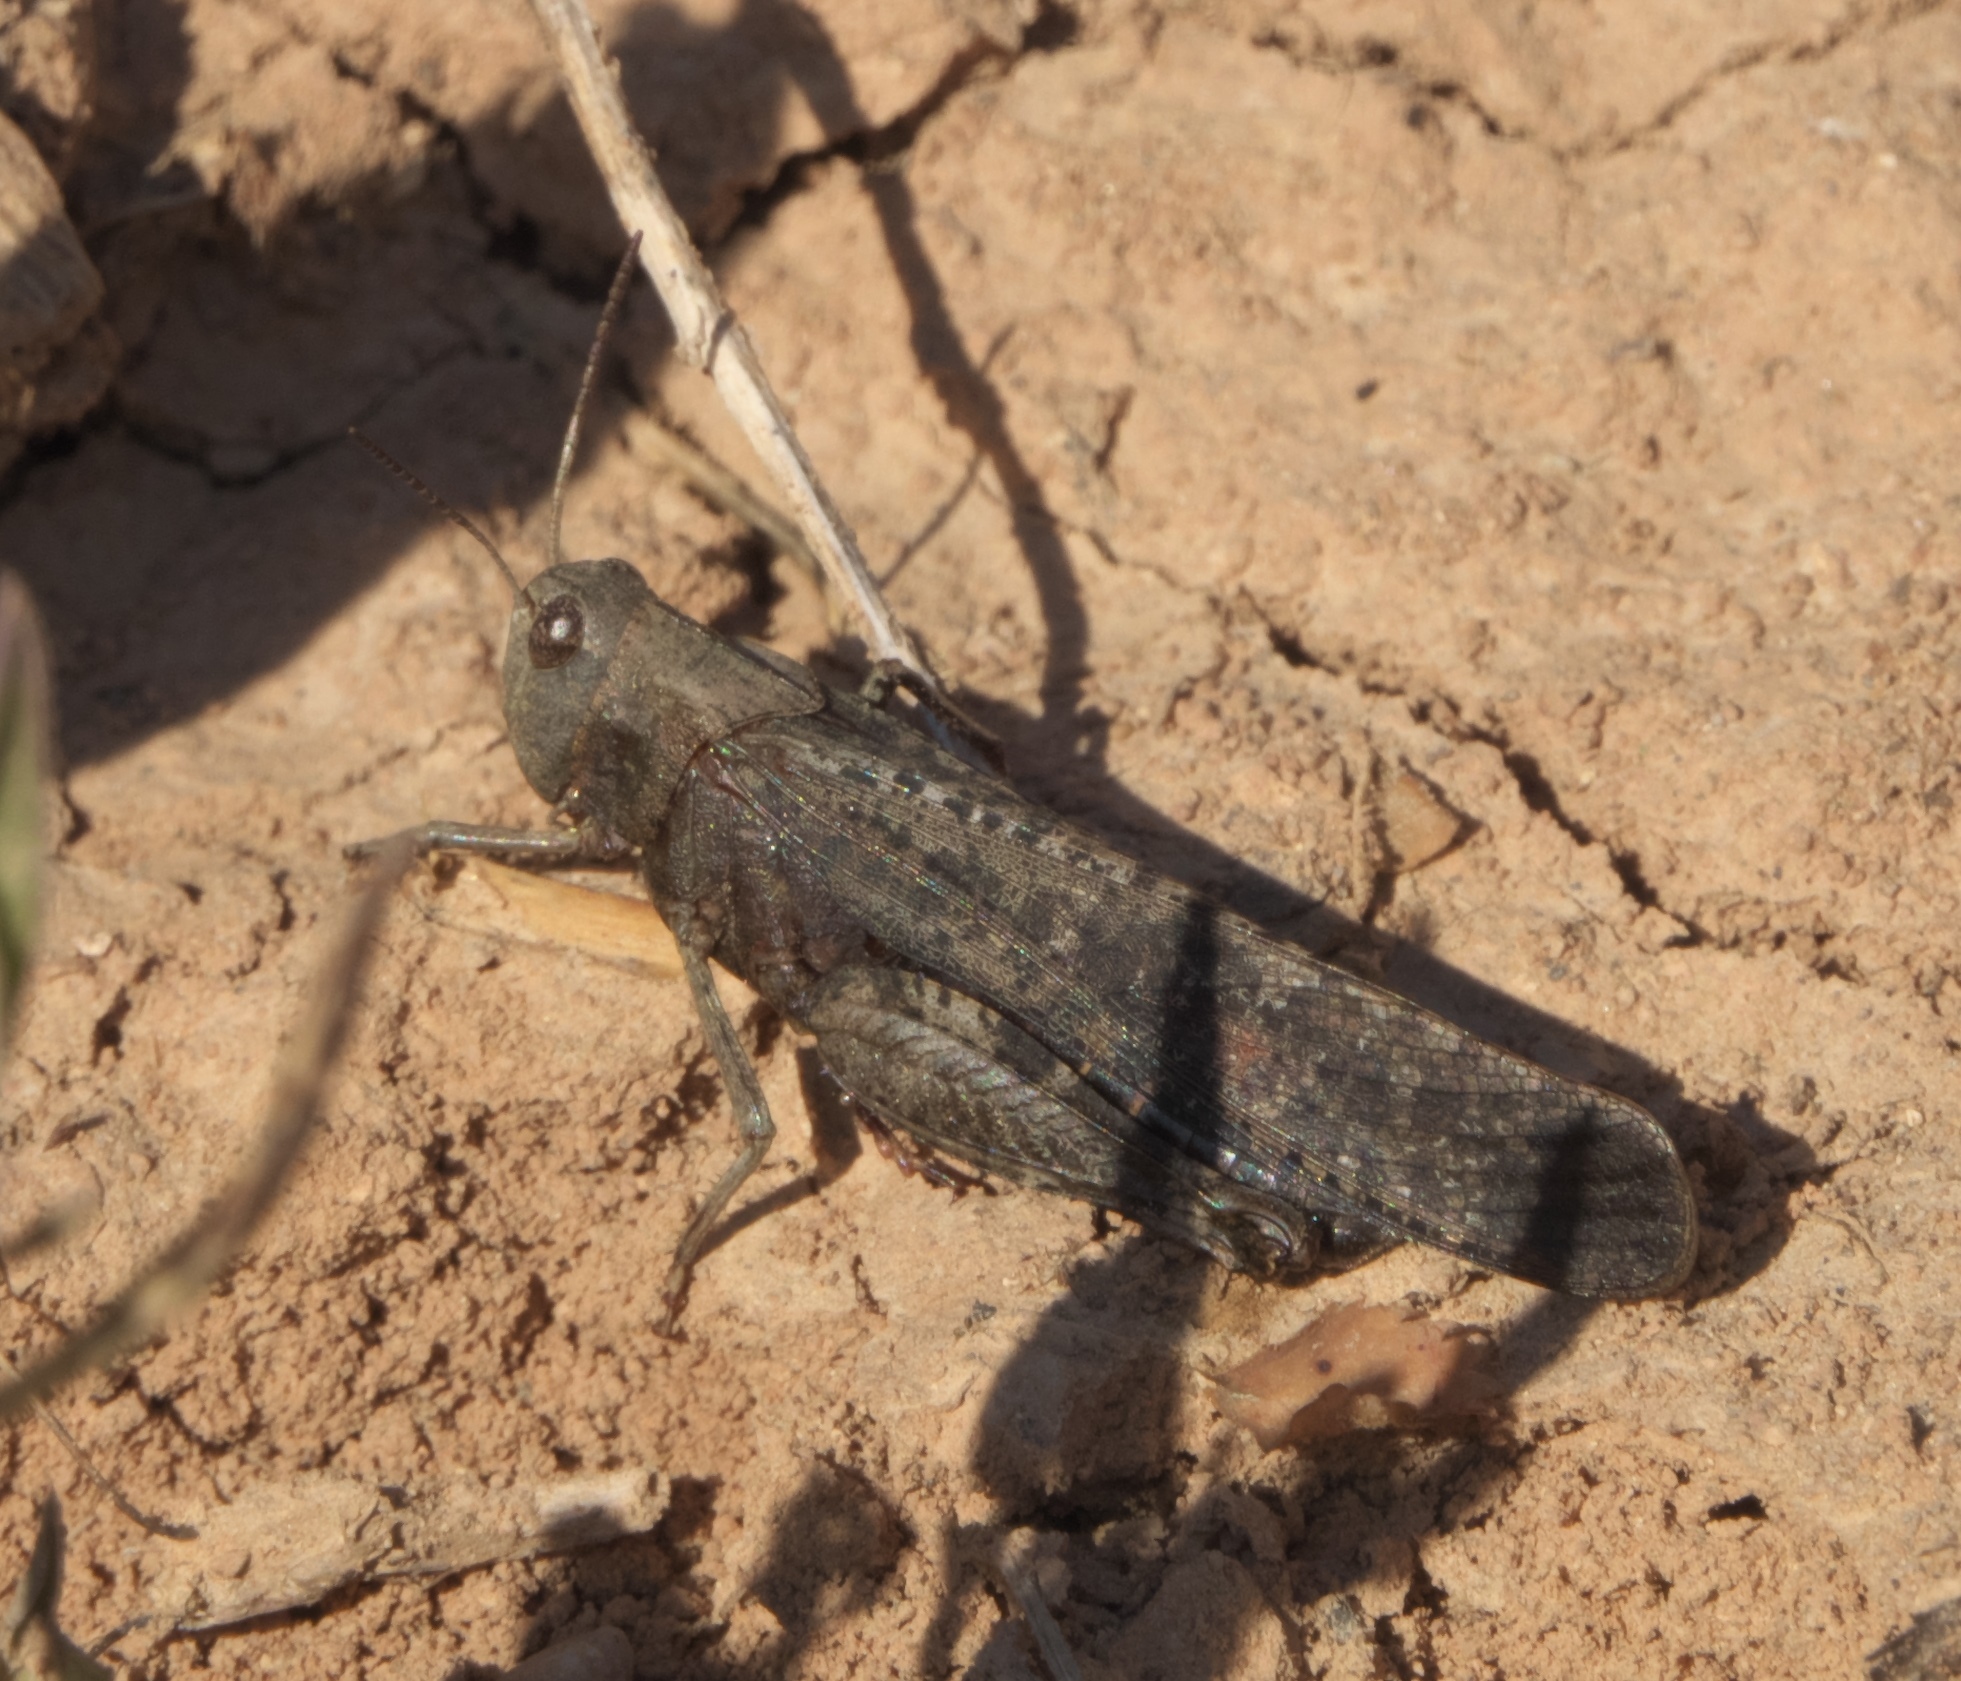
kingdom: Animalia
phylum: Arthropoda
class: Insecta
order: Orthoptera
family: Acrididae
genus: Arphia
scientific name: Arphia pseudo-nietana
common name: Red-winged grasshopper
